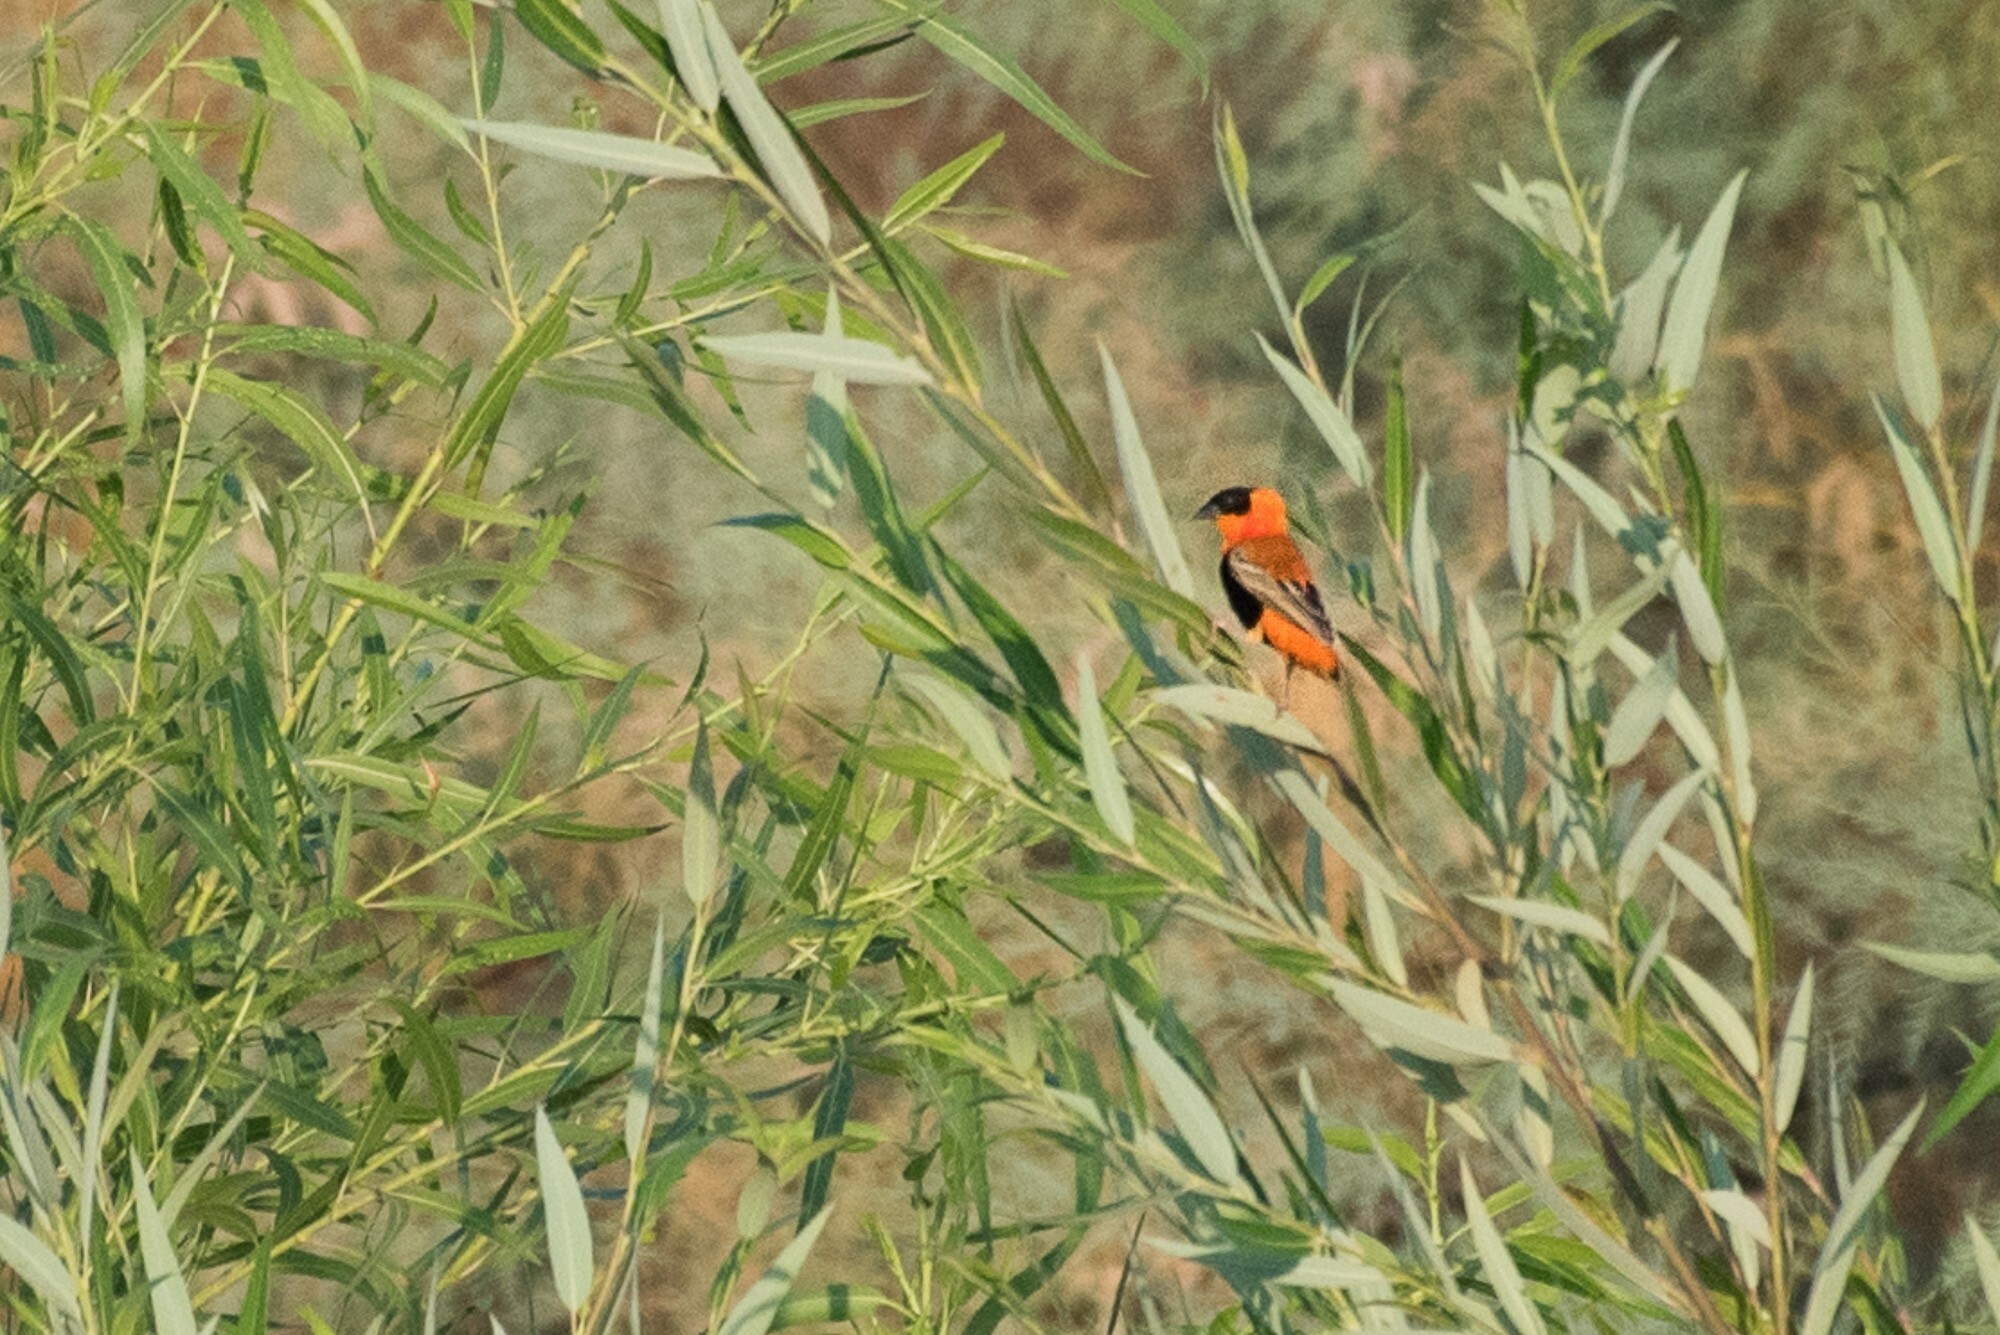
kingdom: Animalia
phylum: Chordata
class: Aves
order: Passeriformes
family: Ploceidae
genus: Euplectes
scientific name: Euplectes franciscanus
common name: Northern red bishop
